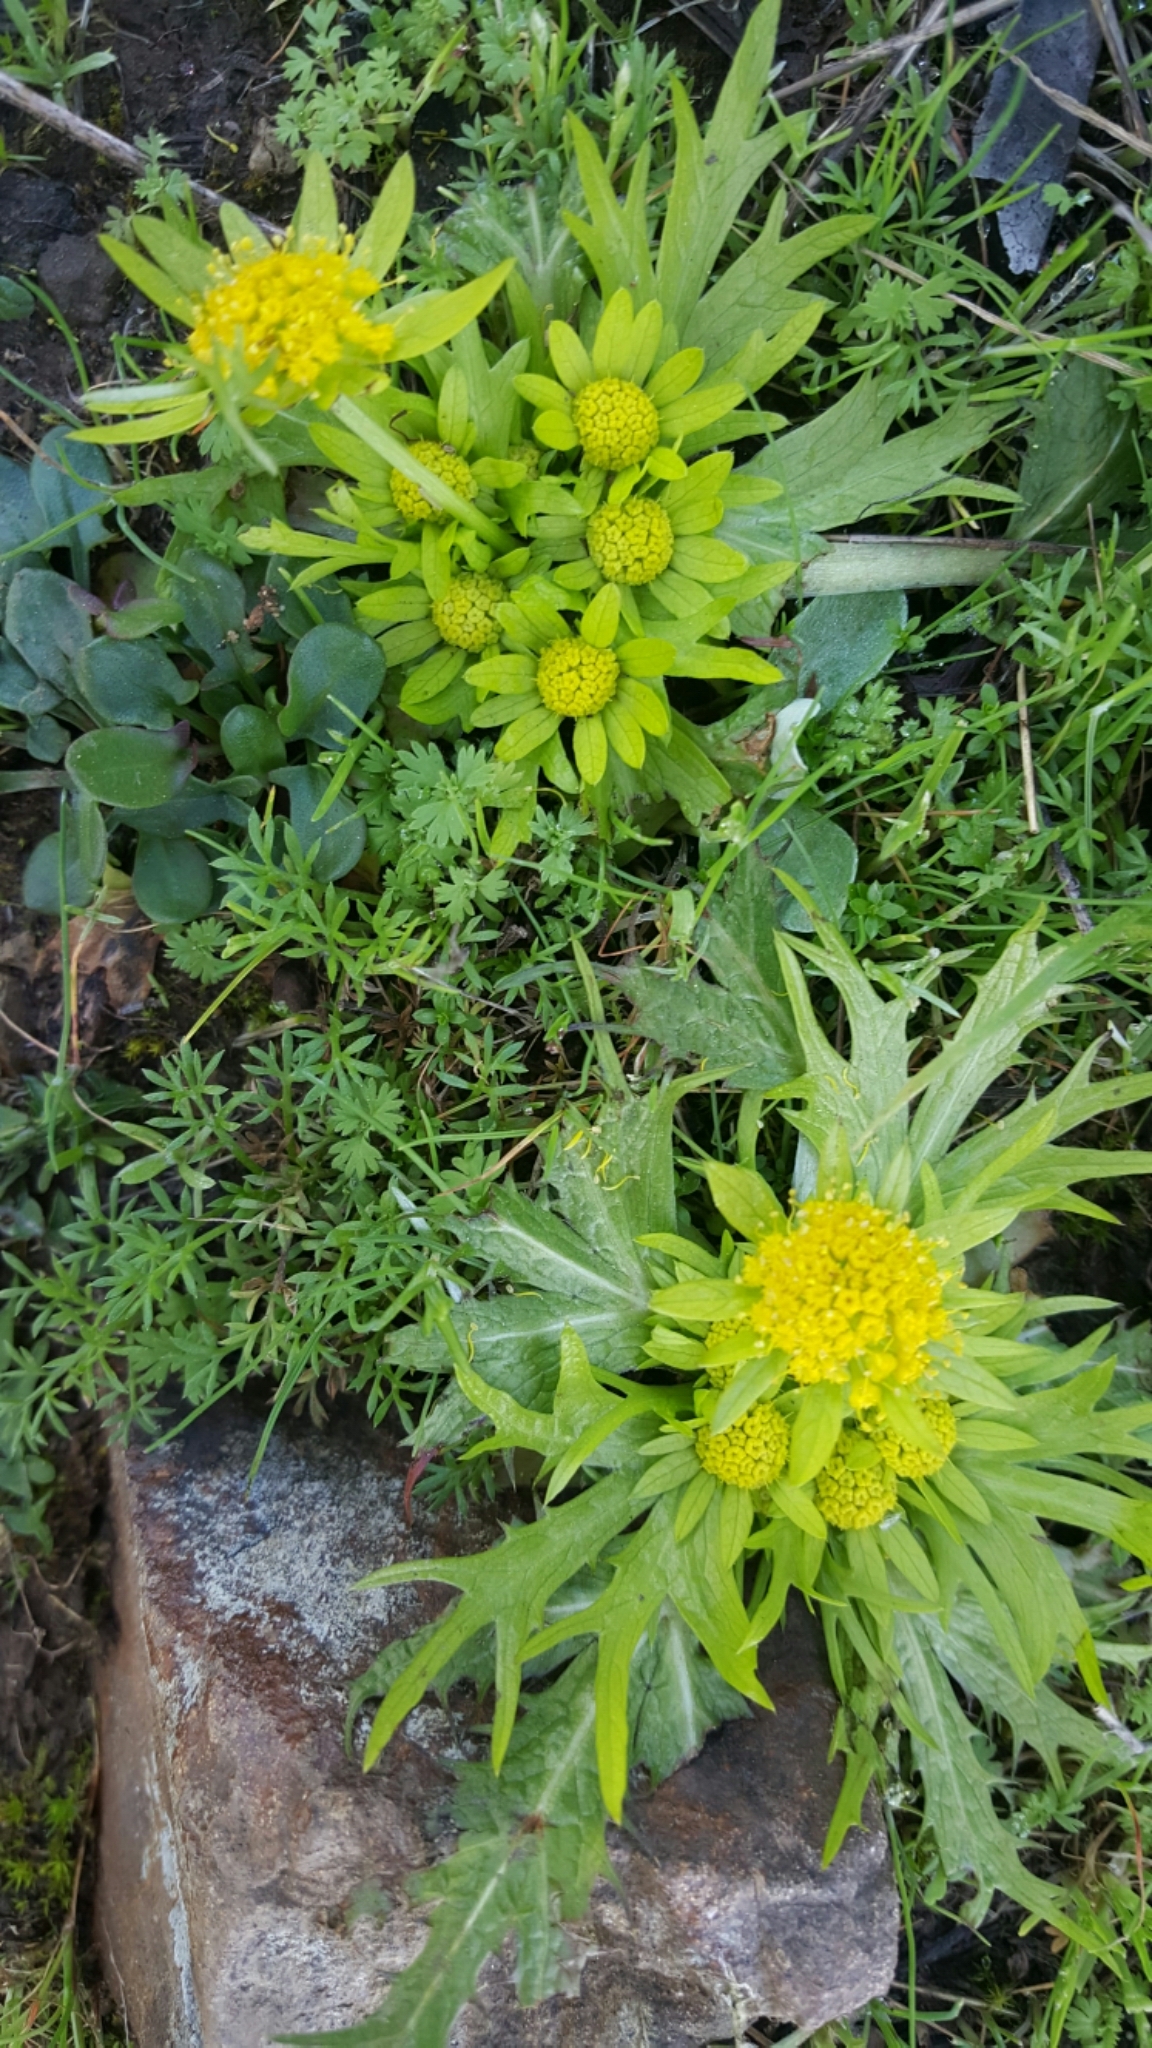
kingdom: Plantae
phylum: Tracheophyta
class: Magnoliopsida
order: Apiales
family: Apiaceae
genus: Sanicula
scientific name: Sanicula arctopoides
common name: Footsteps-of-spring
